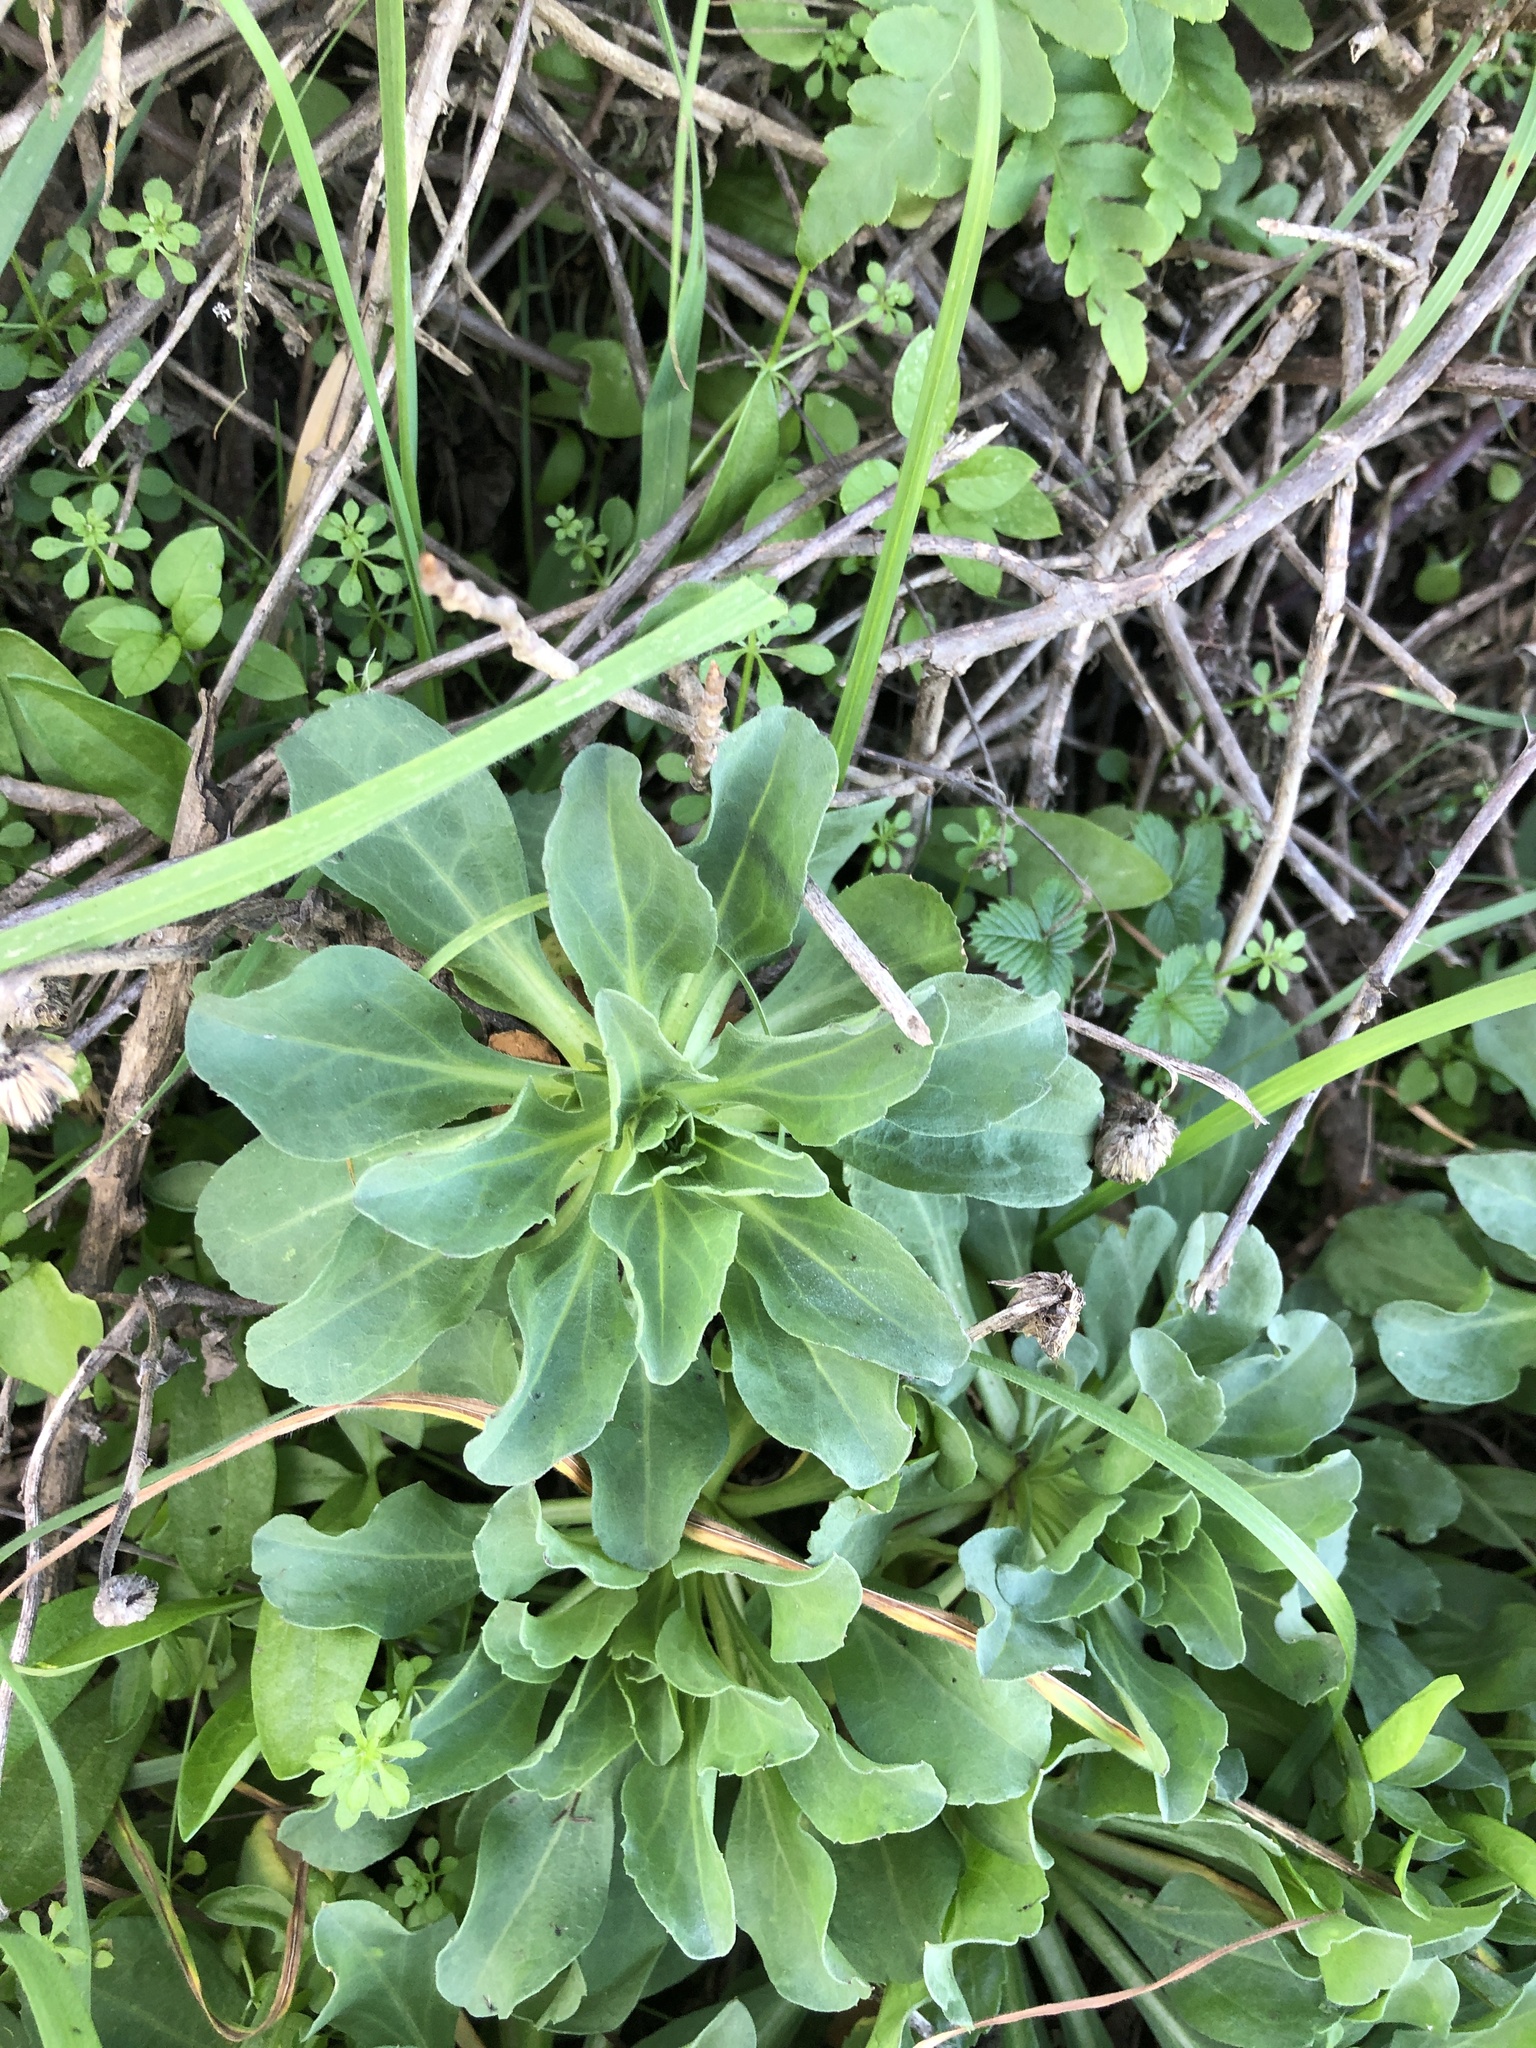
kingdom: Plantae
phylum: Tracheophyta
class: Magnoliopsida
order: Asterales
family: Asteraceae
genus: Erigeron
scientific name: Erigeron glaucus
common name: Seaside daisy
